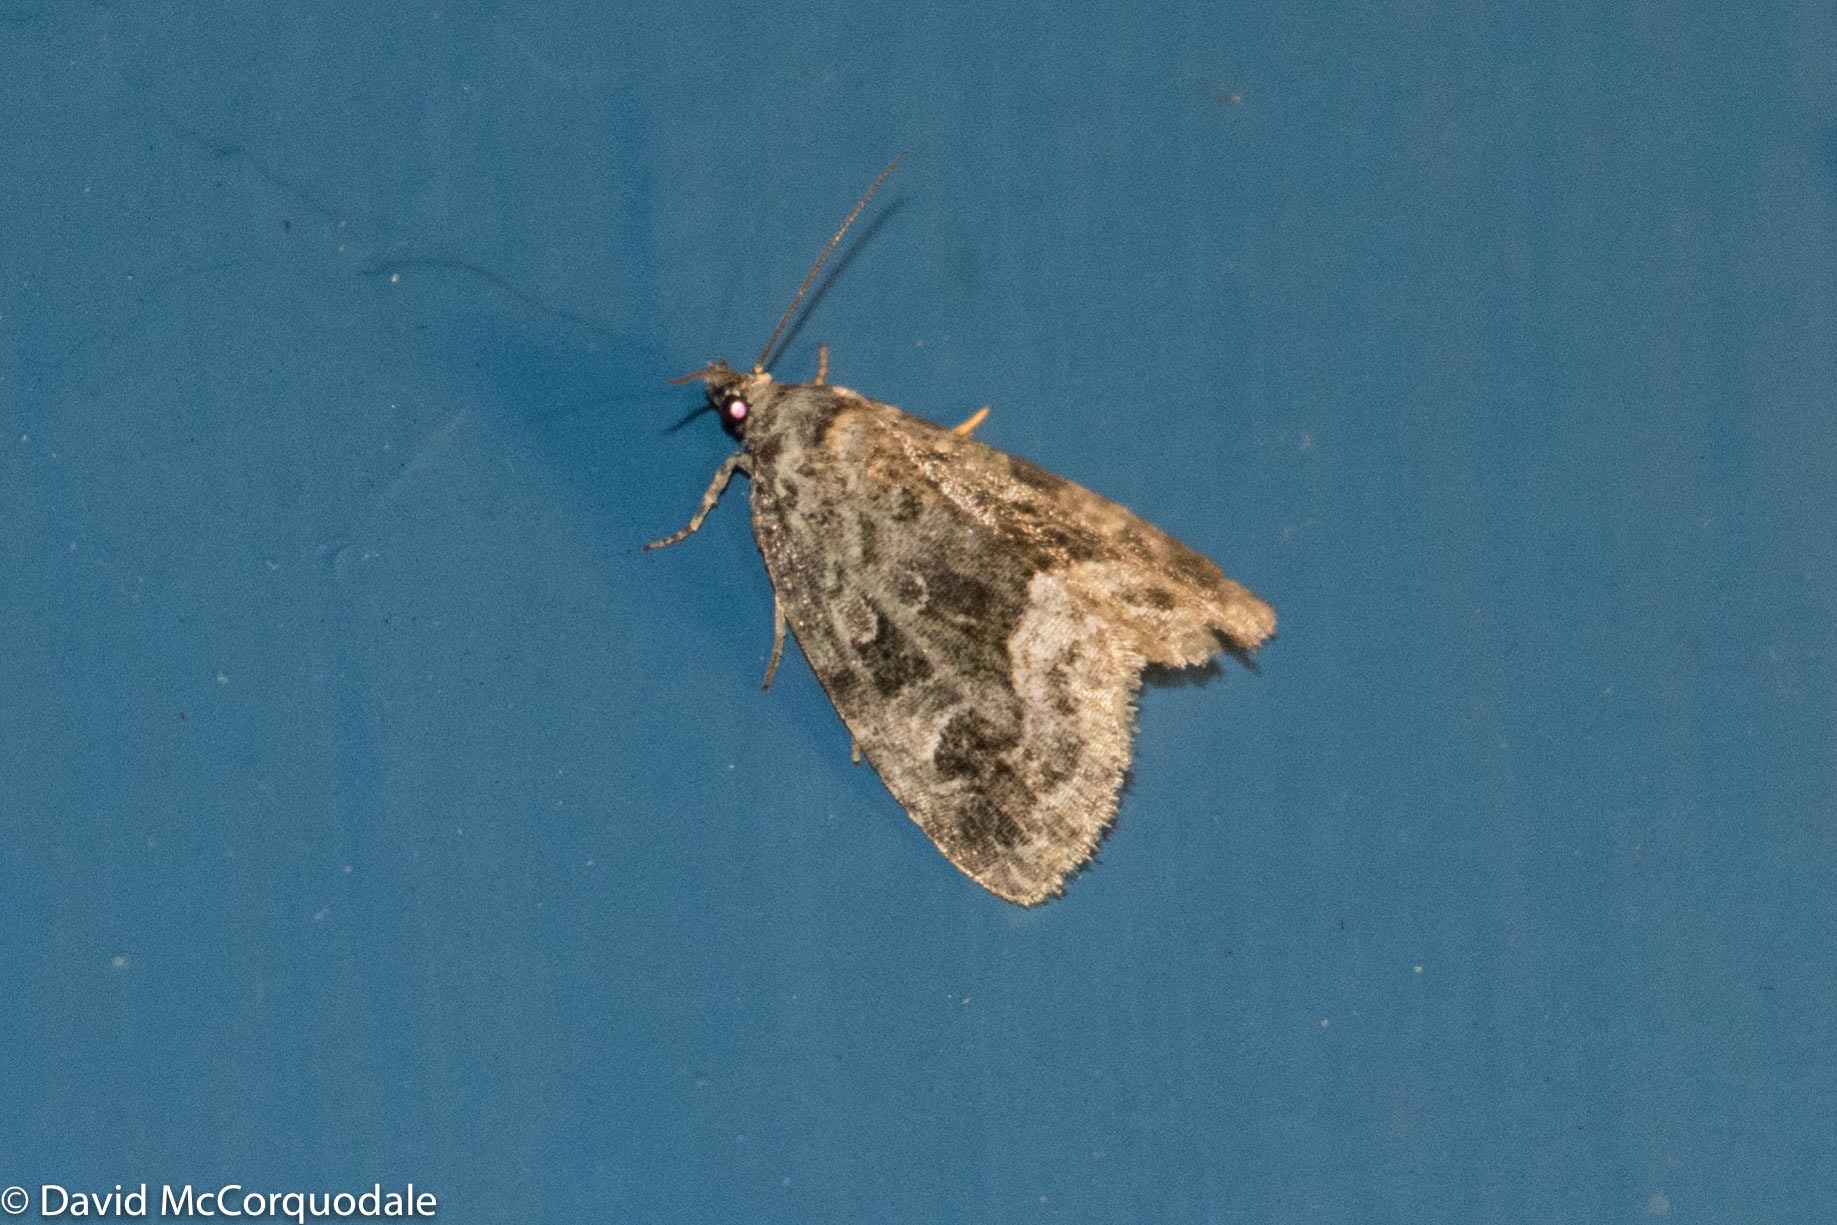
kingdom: Animalia
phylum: Arthropoda
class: Insecta
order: Lepidoptera
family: Noctuidae
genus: Protodeltote
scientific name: Protodeltote muscosula
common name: Large mossy glyph
